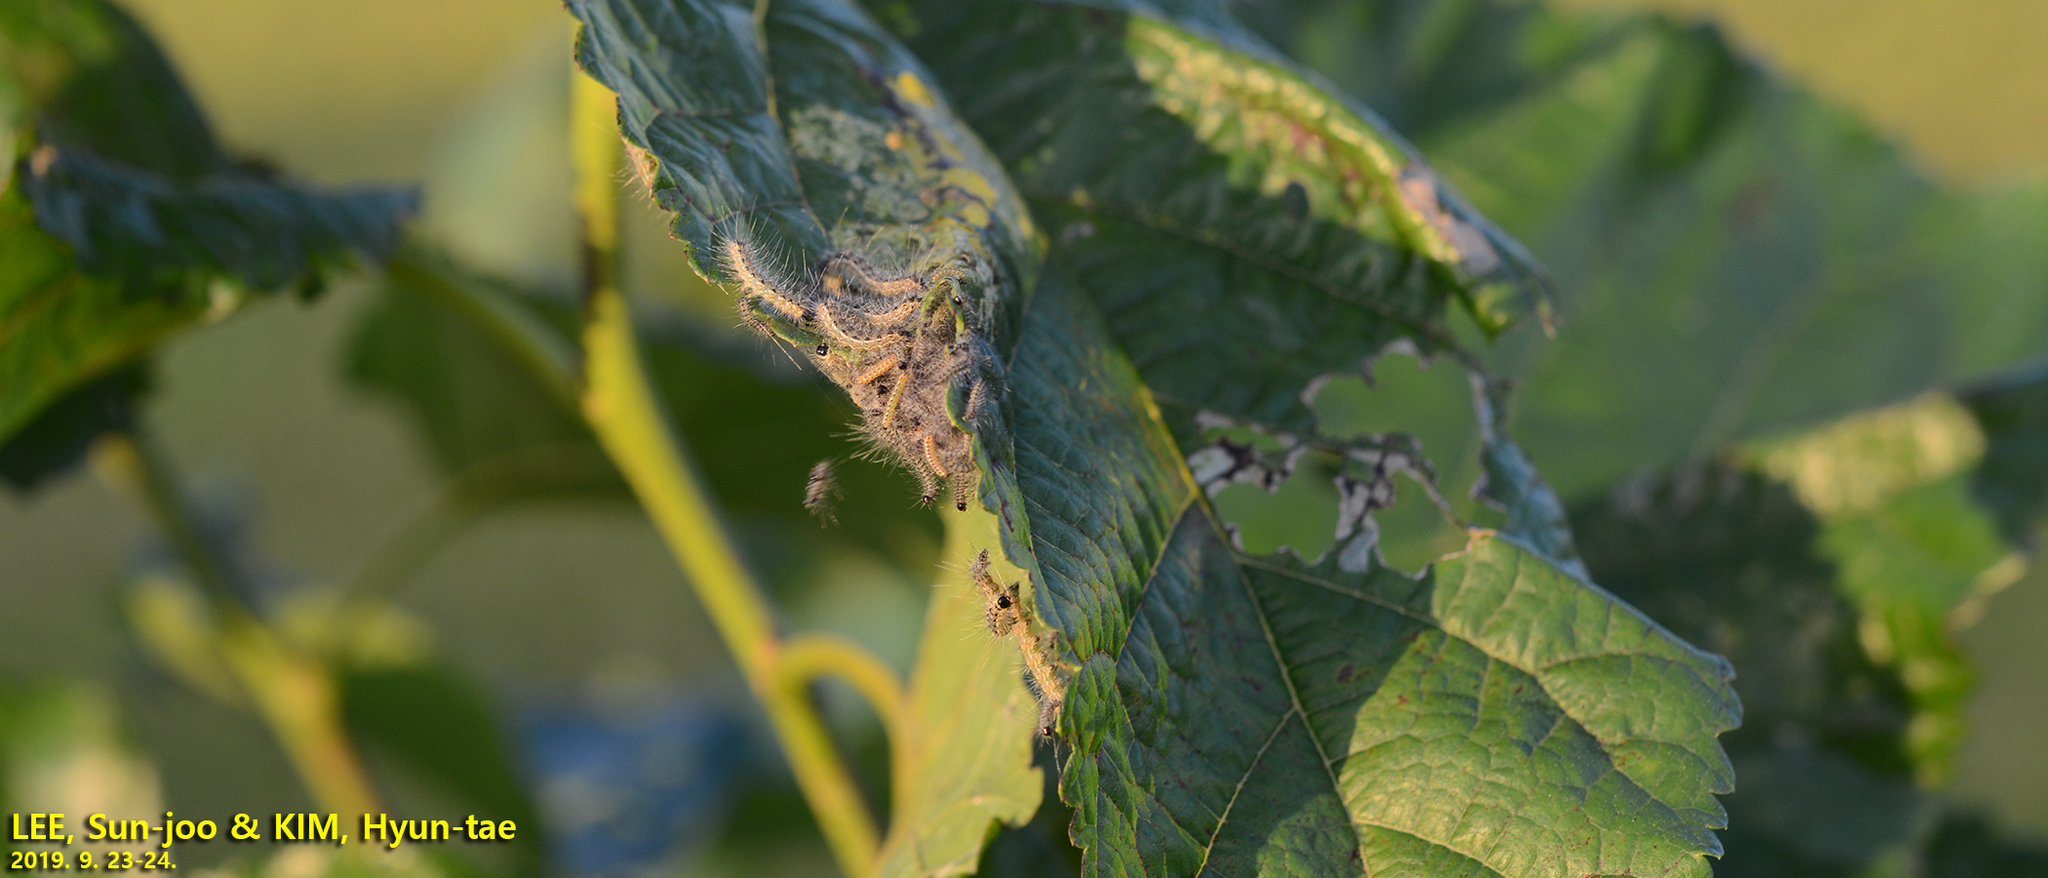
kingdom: Animalia
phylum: Arthropoda
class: Insecta
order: Lepidoptera
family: Erebidae
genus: Hyphantria
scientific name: Hyphantria cunea
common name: American white moth
